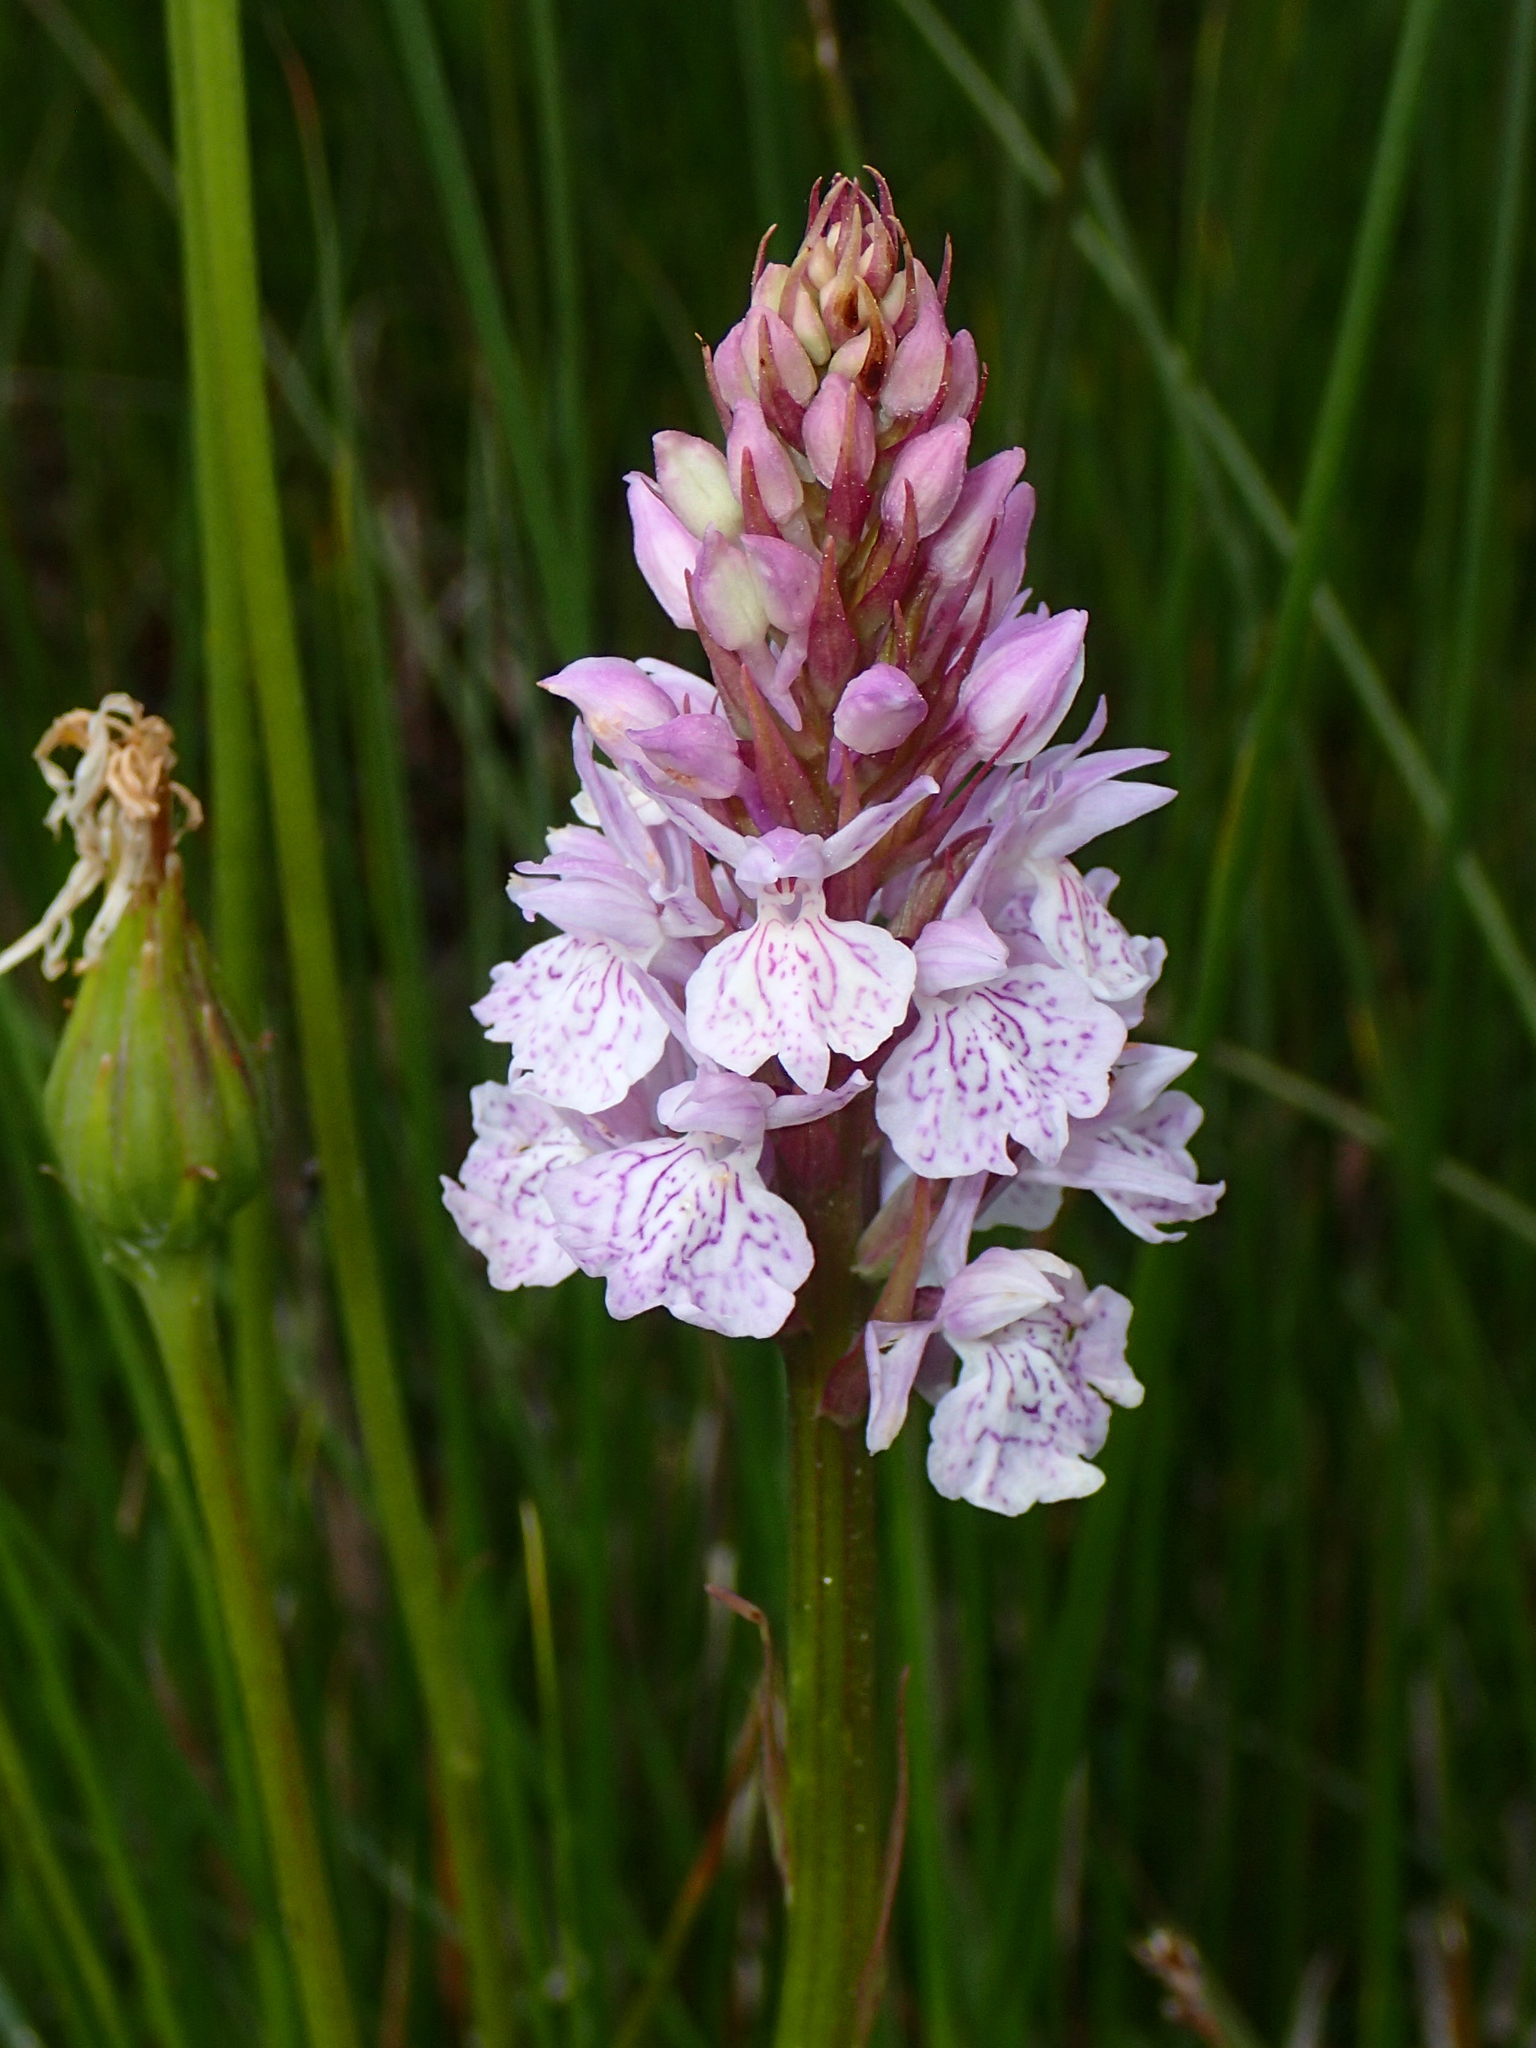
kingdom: Plantae
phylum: Tracheophyta
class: Liliopsida
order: Asparagales
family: Orchidaceae
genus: Dactylorhiza
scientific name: Dactylorhiza maculata
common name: Heath spotted-orchid
